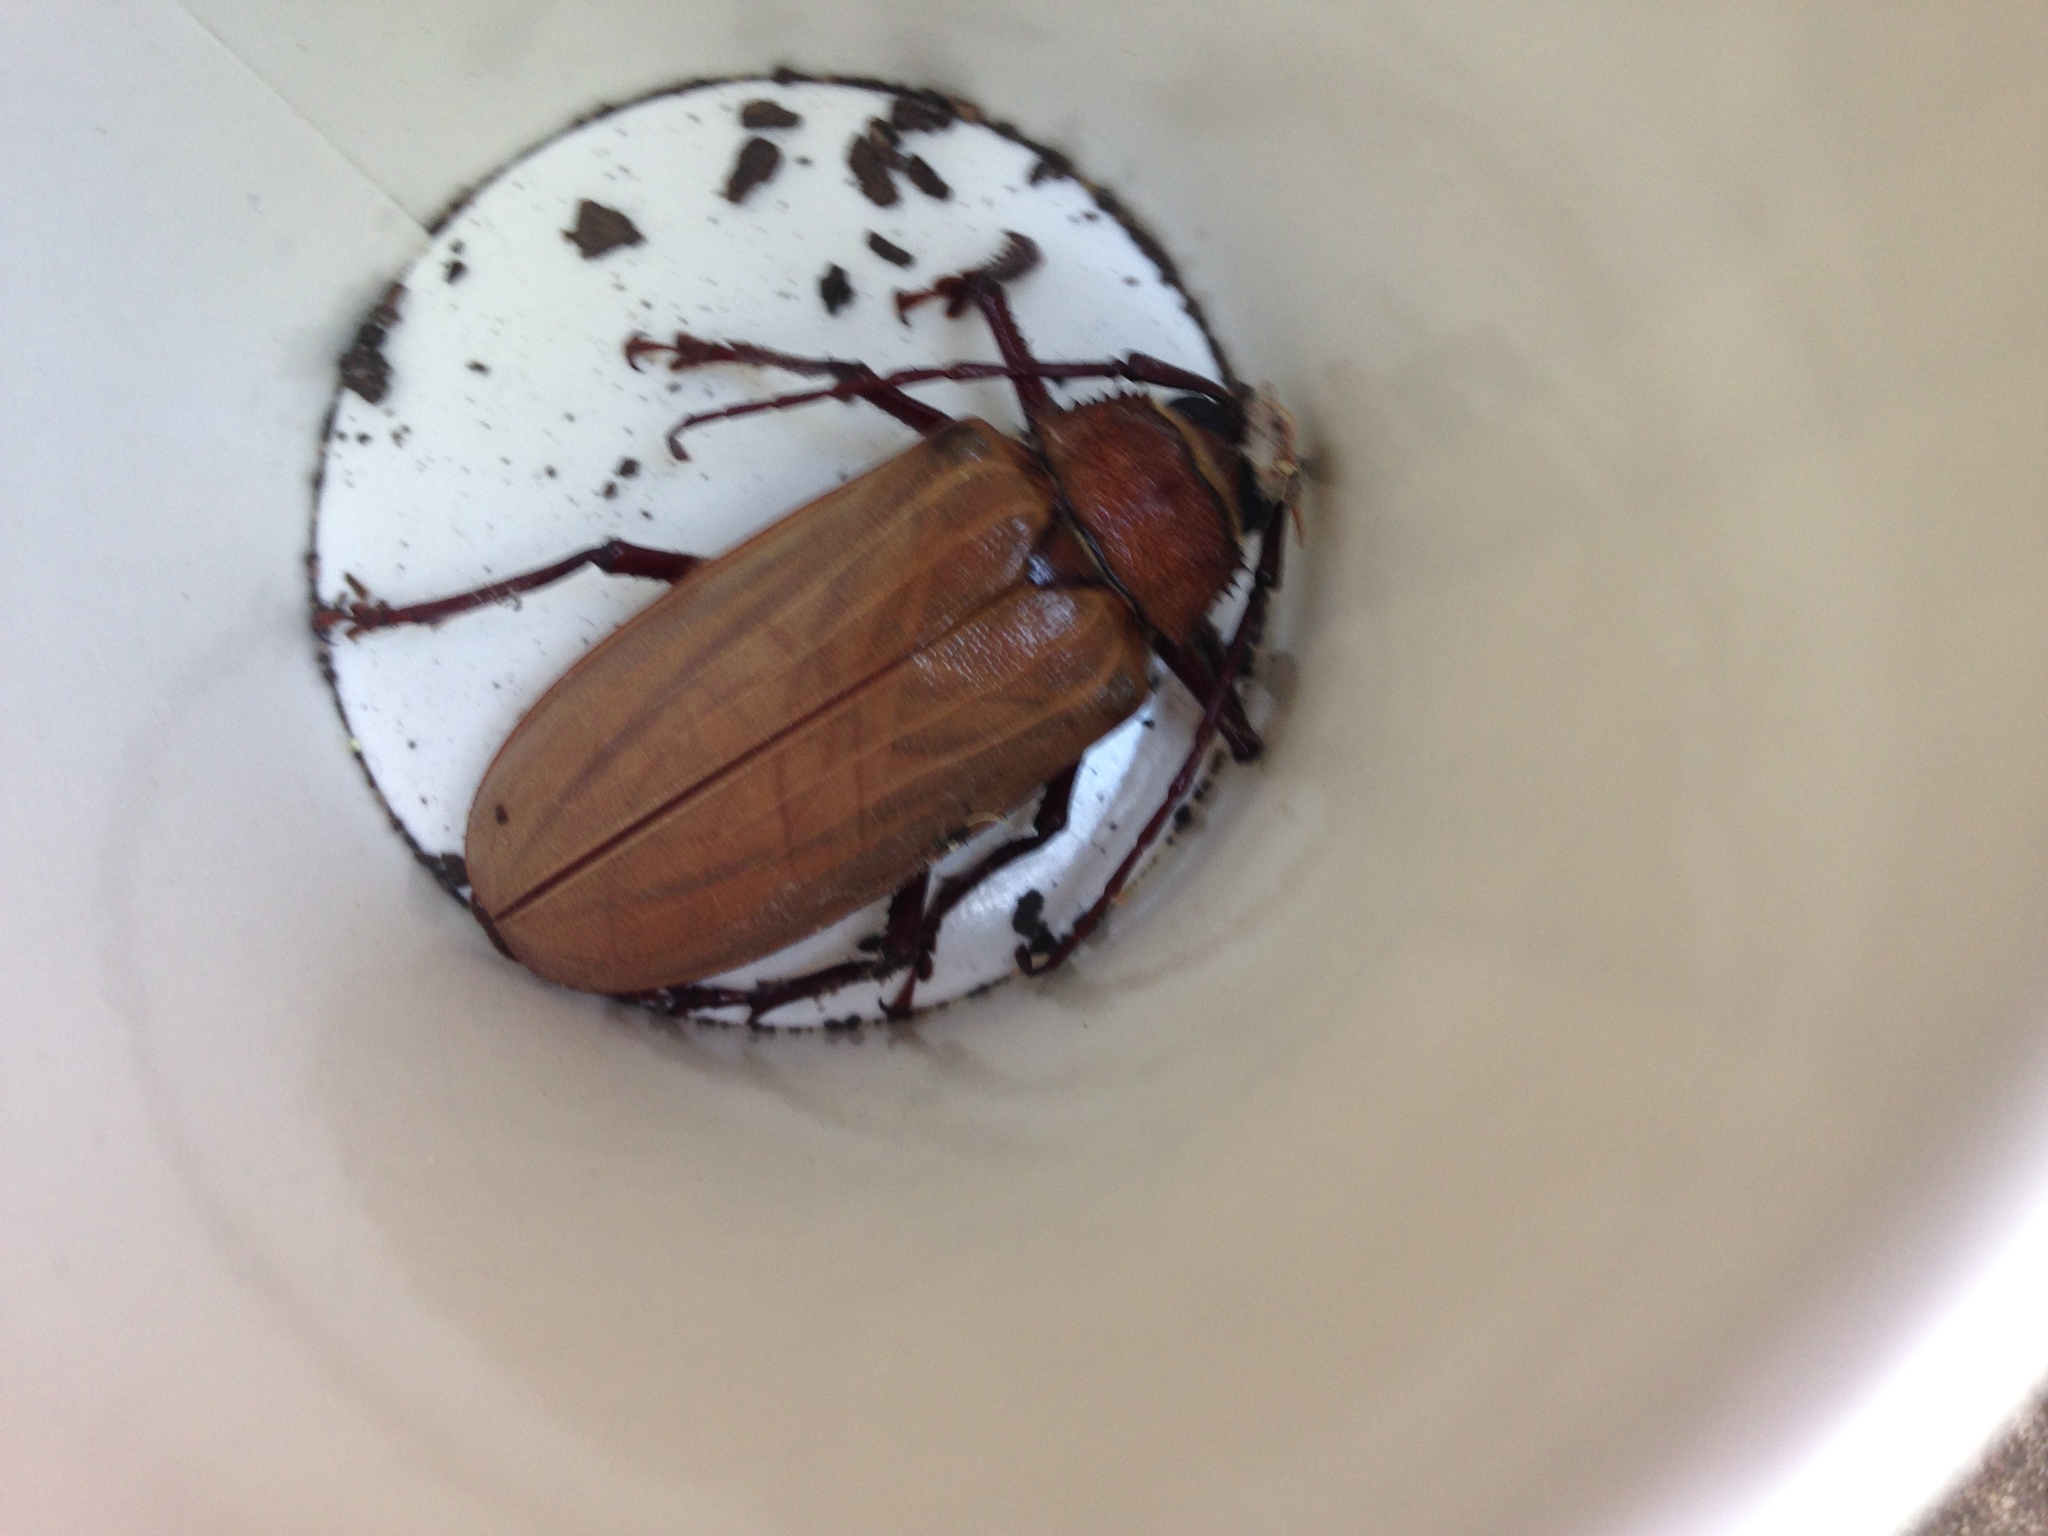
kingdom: Animalia
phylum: Arthropoda
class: Insecta
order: Coleoptera
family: Cerambycidae
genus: Agrianome
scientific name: Agrianome spinicollis
